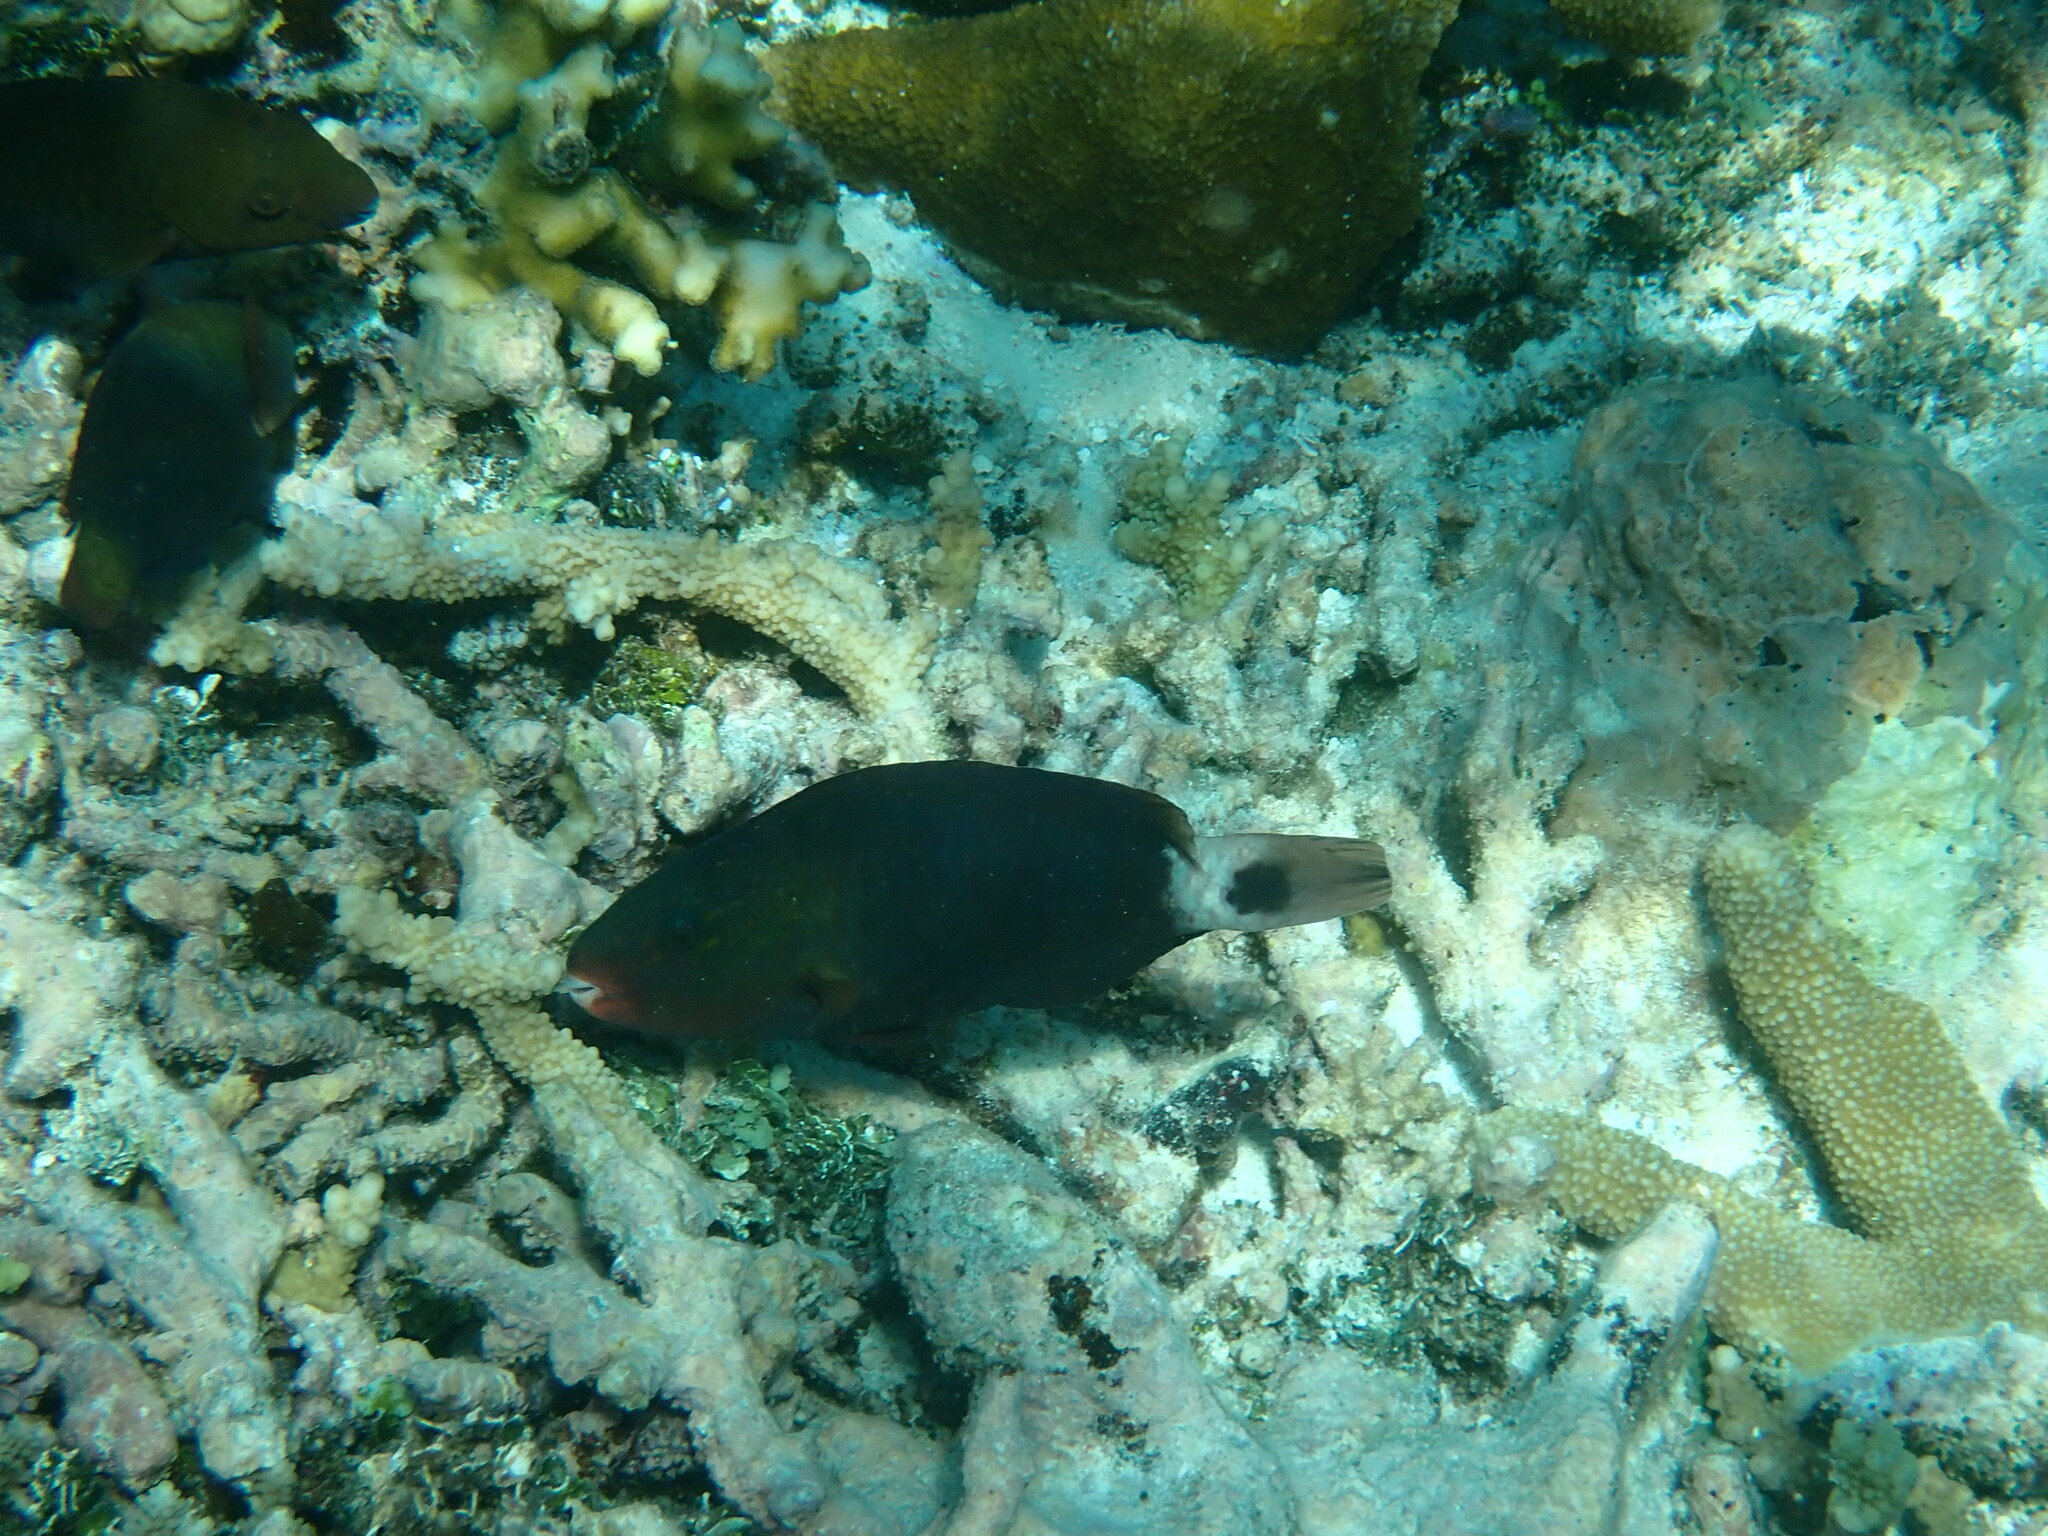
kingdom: Animalia
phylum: Chordata
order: Perciformes
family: Scaridae
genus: Chlorurus
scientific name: Chlorurus spilurus
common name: Bullethead parrotfish
